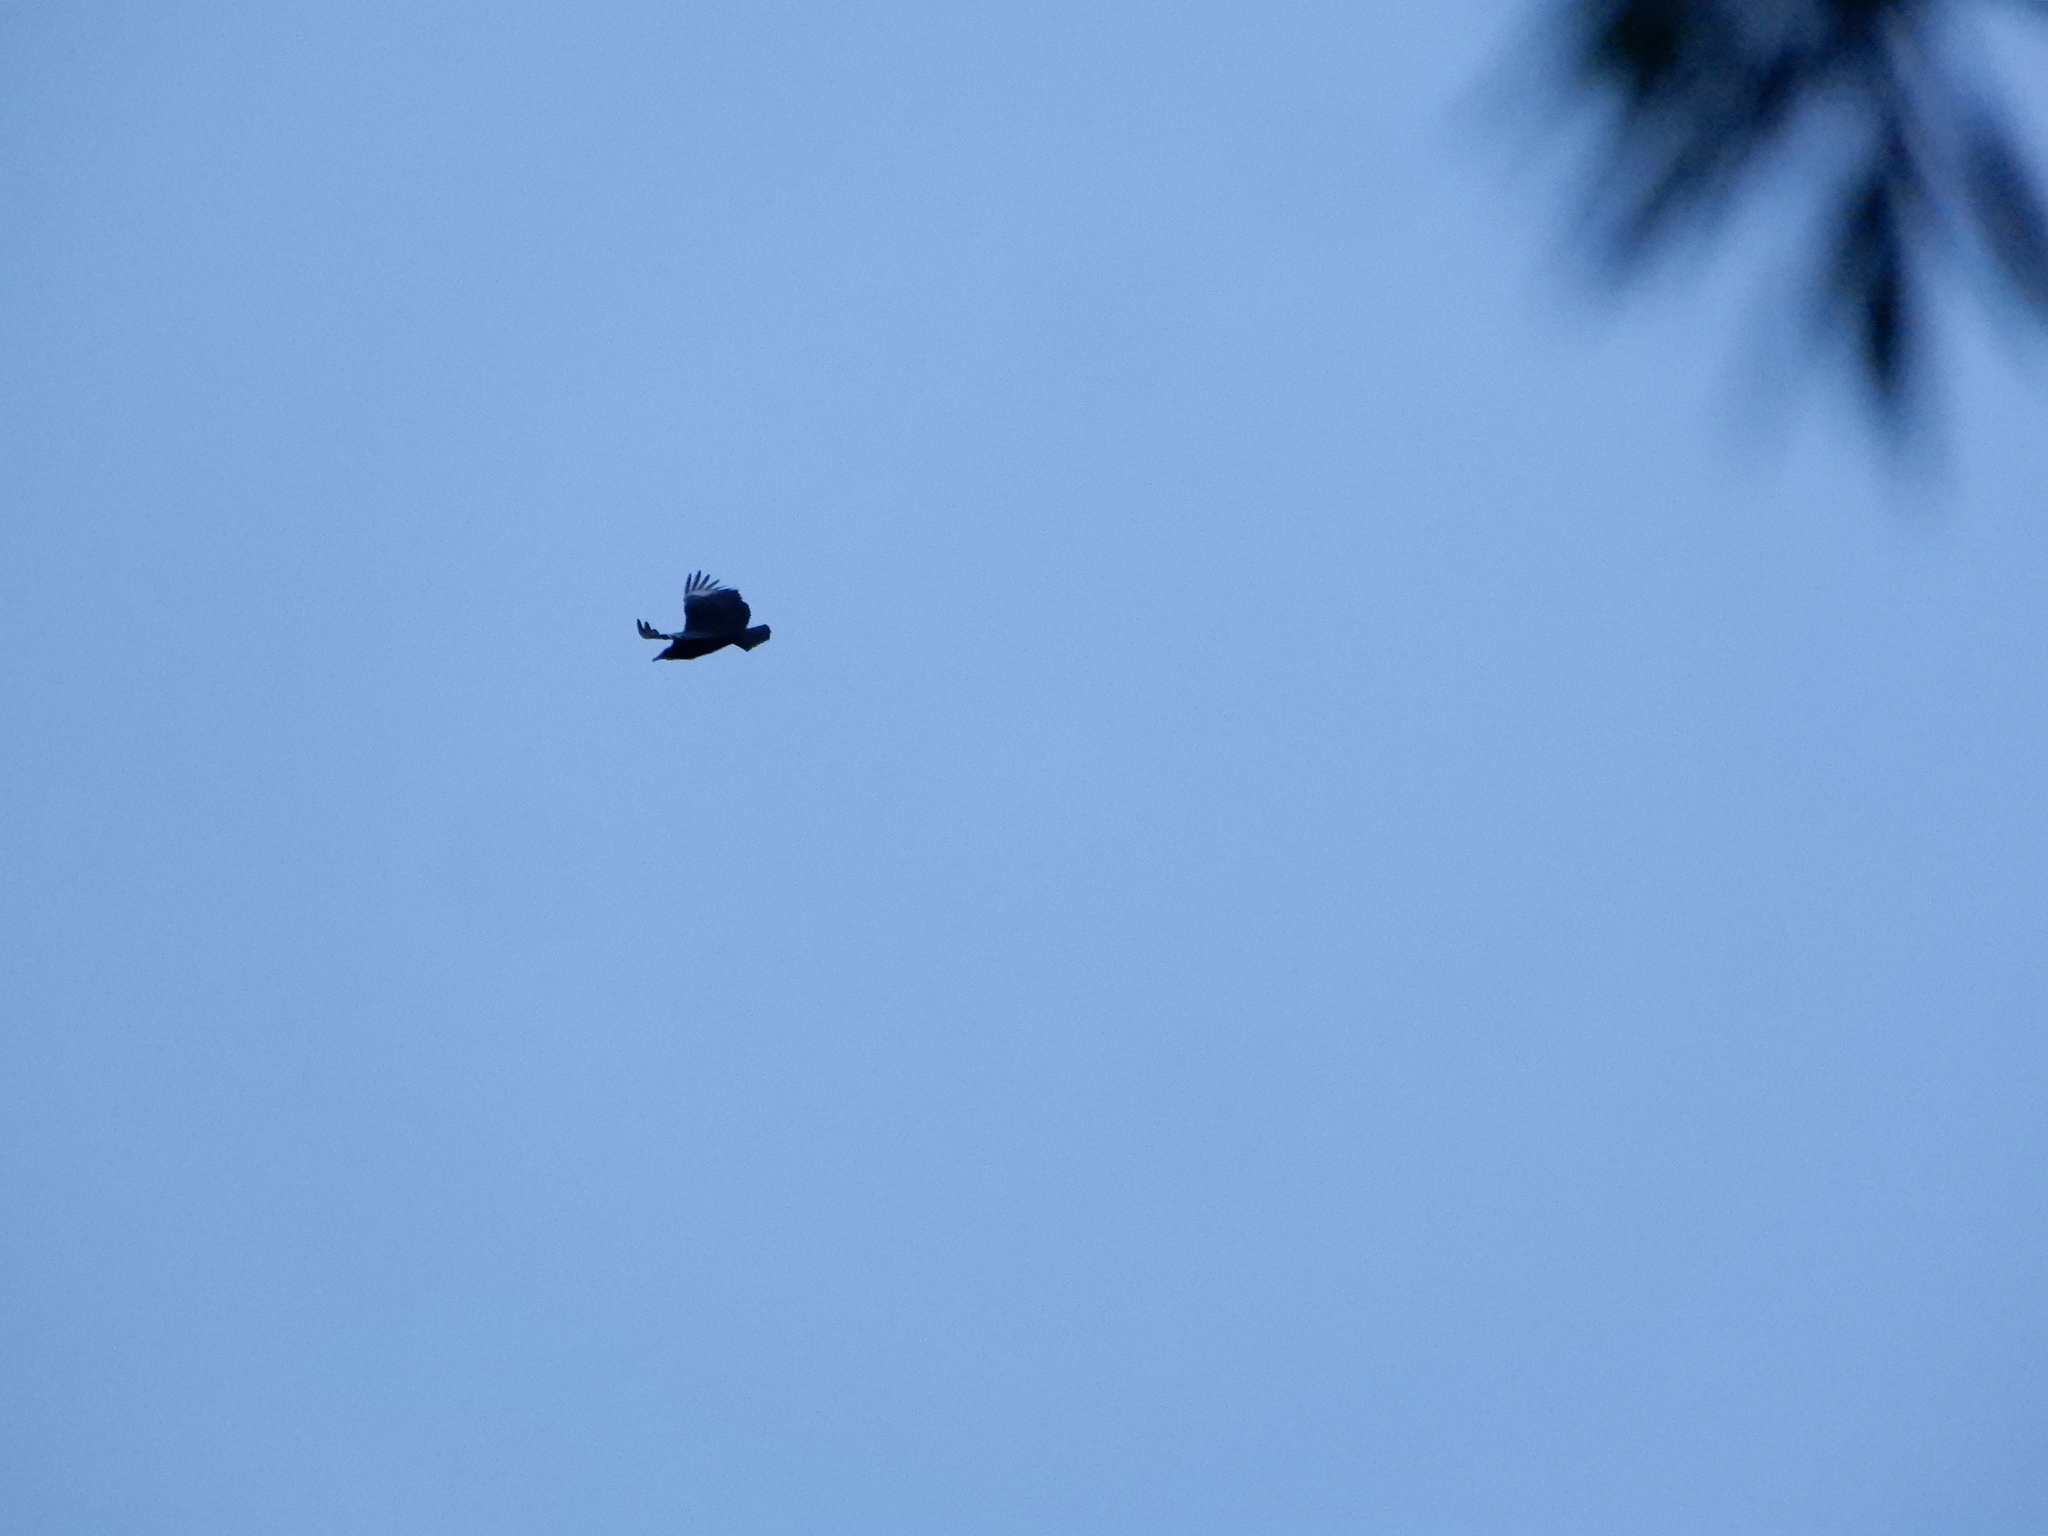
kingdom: Animalia
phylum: Chordata
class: Aves
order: Accipitriformes
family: Cathartidae
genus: Coragyps
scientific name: Coragyps atratus
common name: Black vulture
